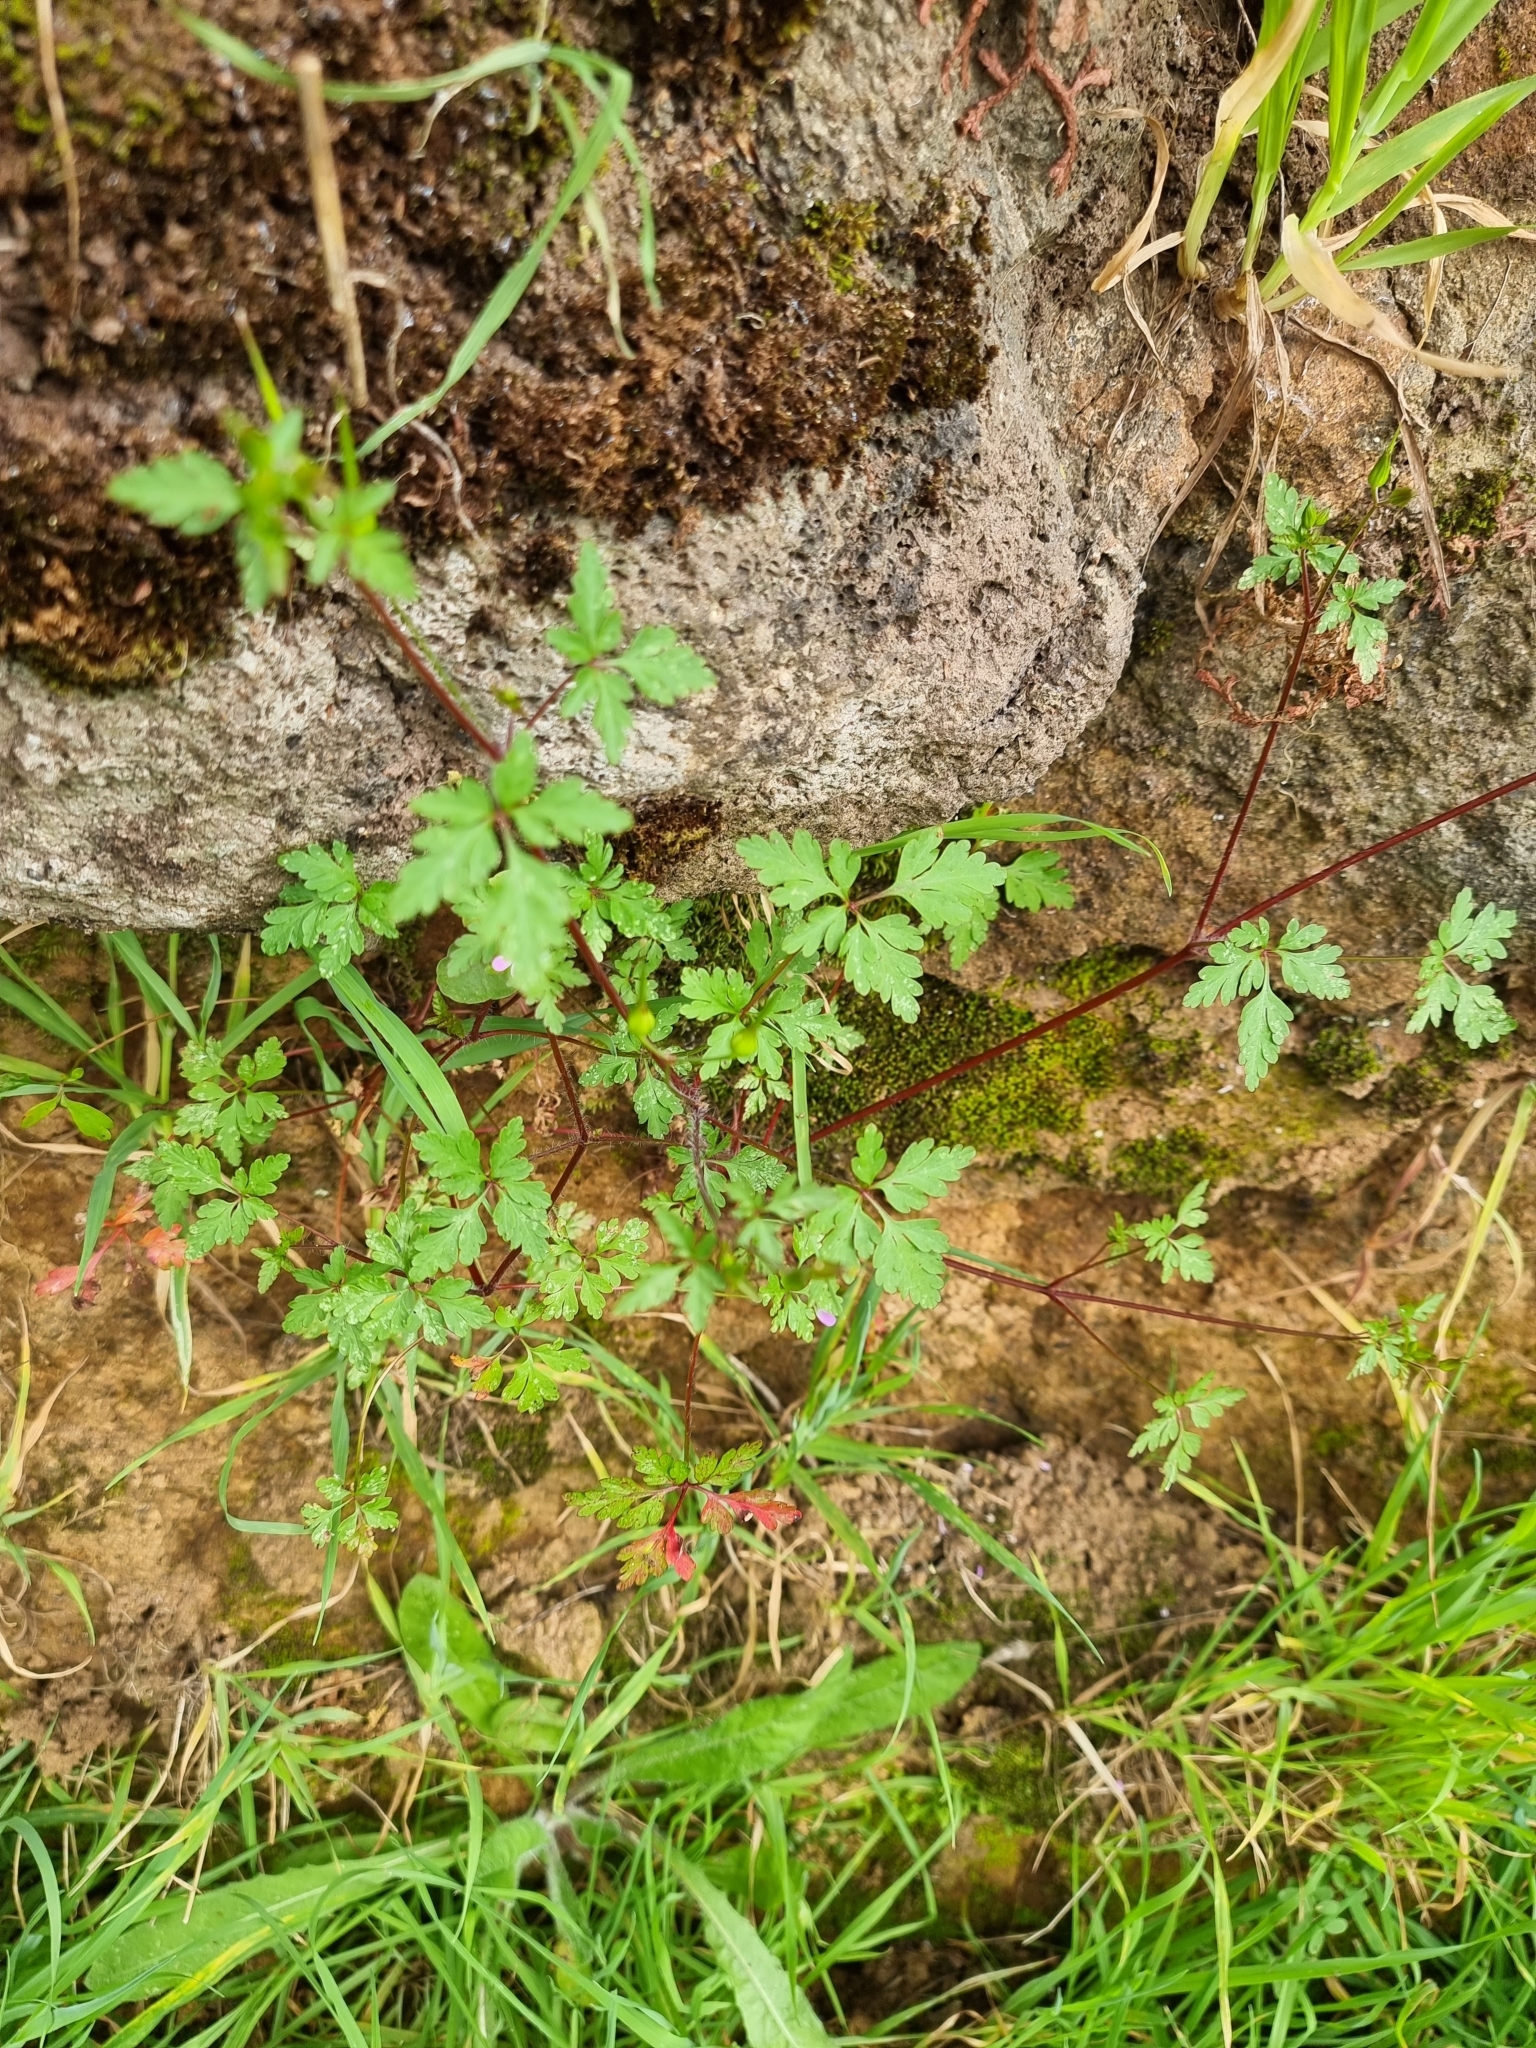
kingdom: Plantae
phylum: Tracheophyta
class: Magnoliopsida
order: Geraniales
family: Geraniaceae
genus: Geranium
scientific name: Geranium purpureum
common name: Little-robin
